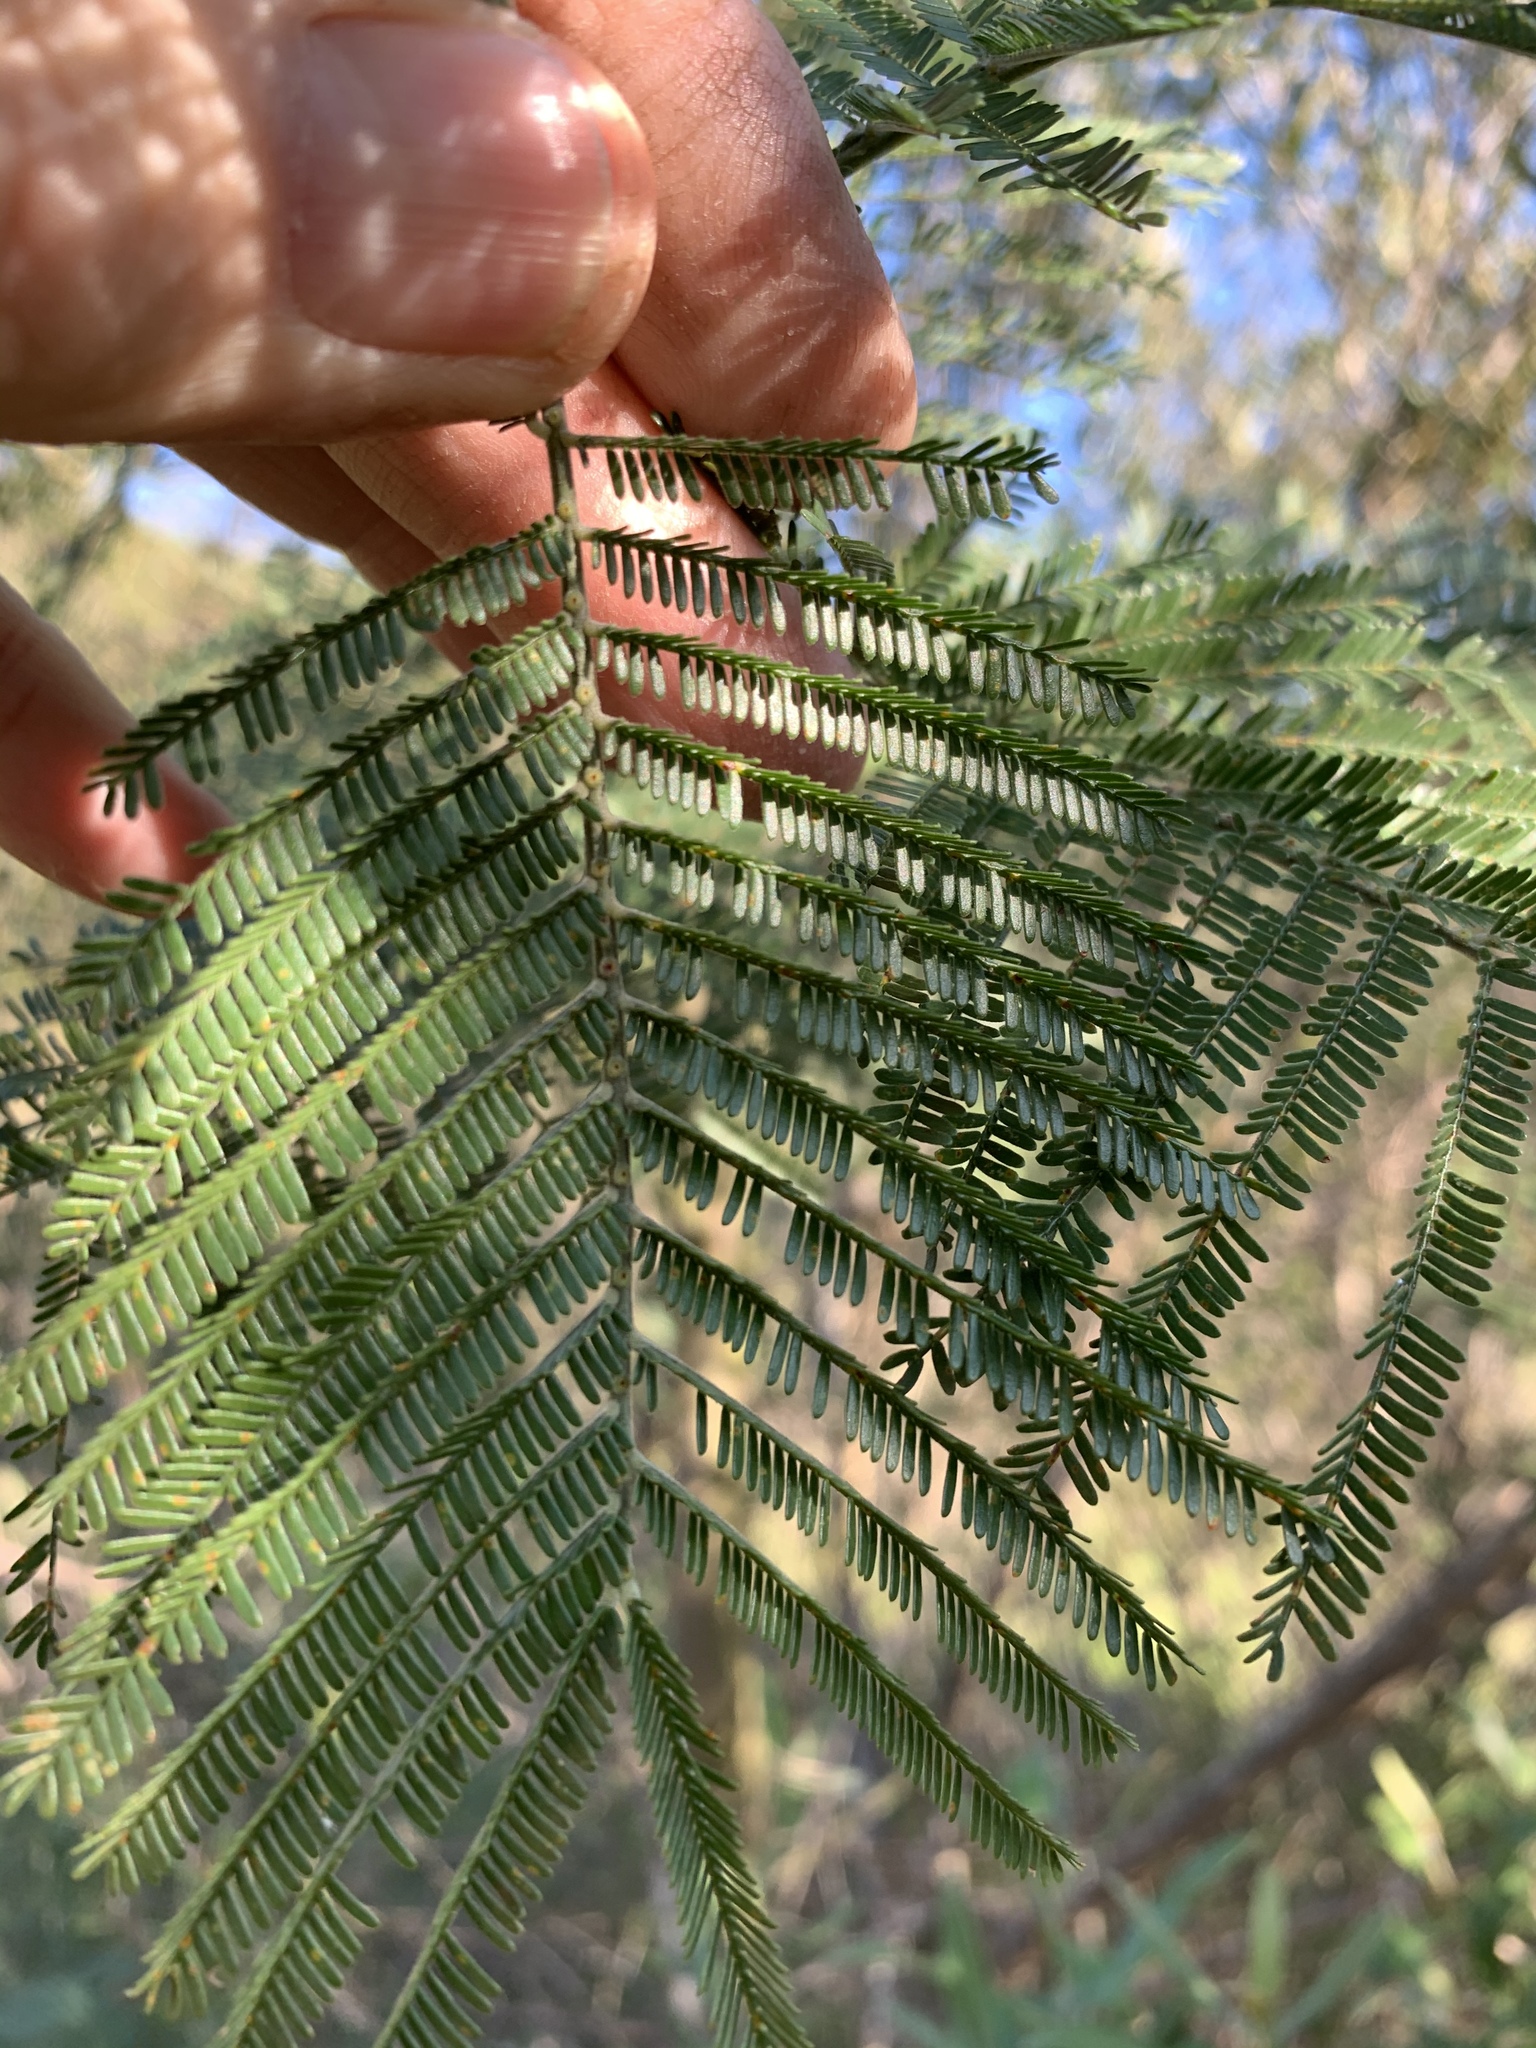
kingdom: Plantae
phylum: Tracheophyta
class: Magnoliopsida
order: Fabales
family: Fabaceae
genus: Acacia
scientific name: Acacia mearnsii
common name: Black wattle
